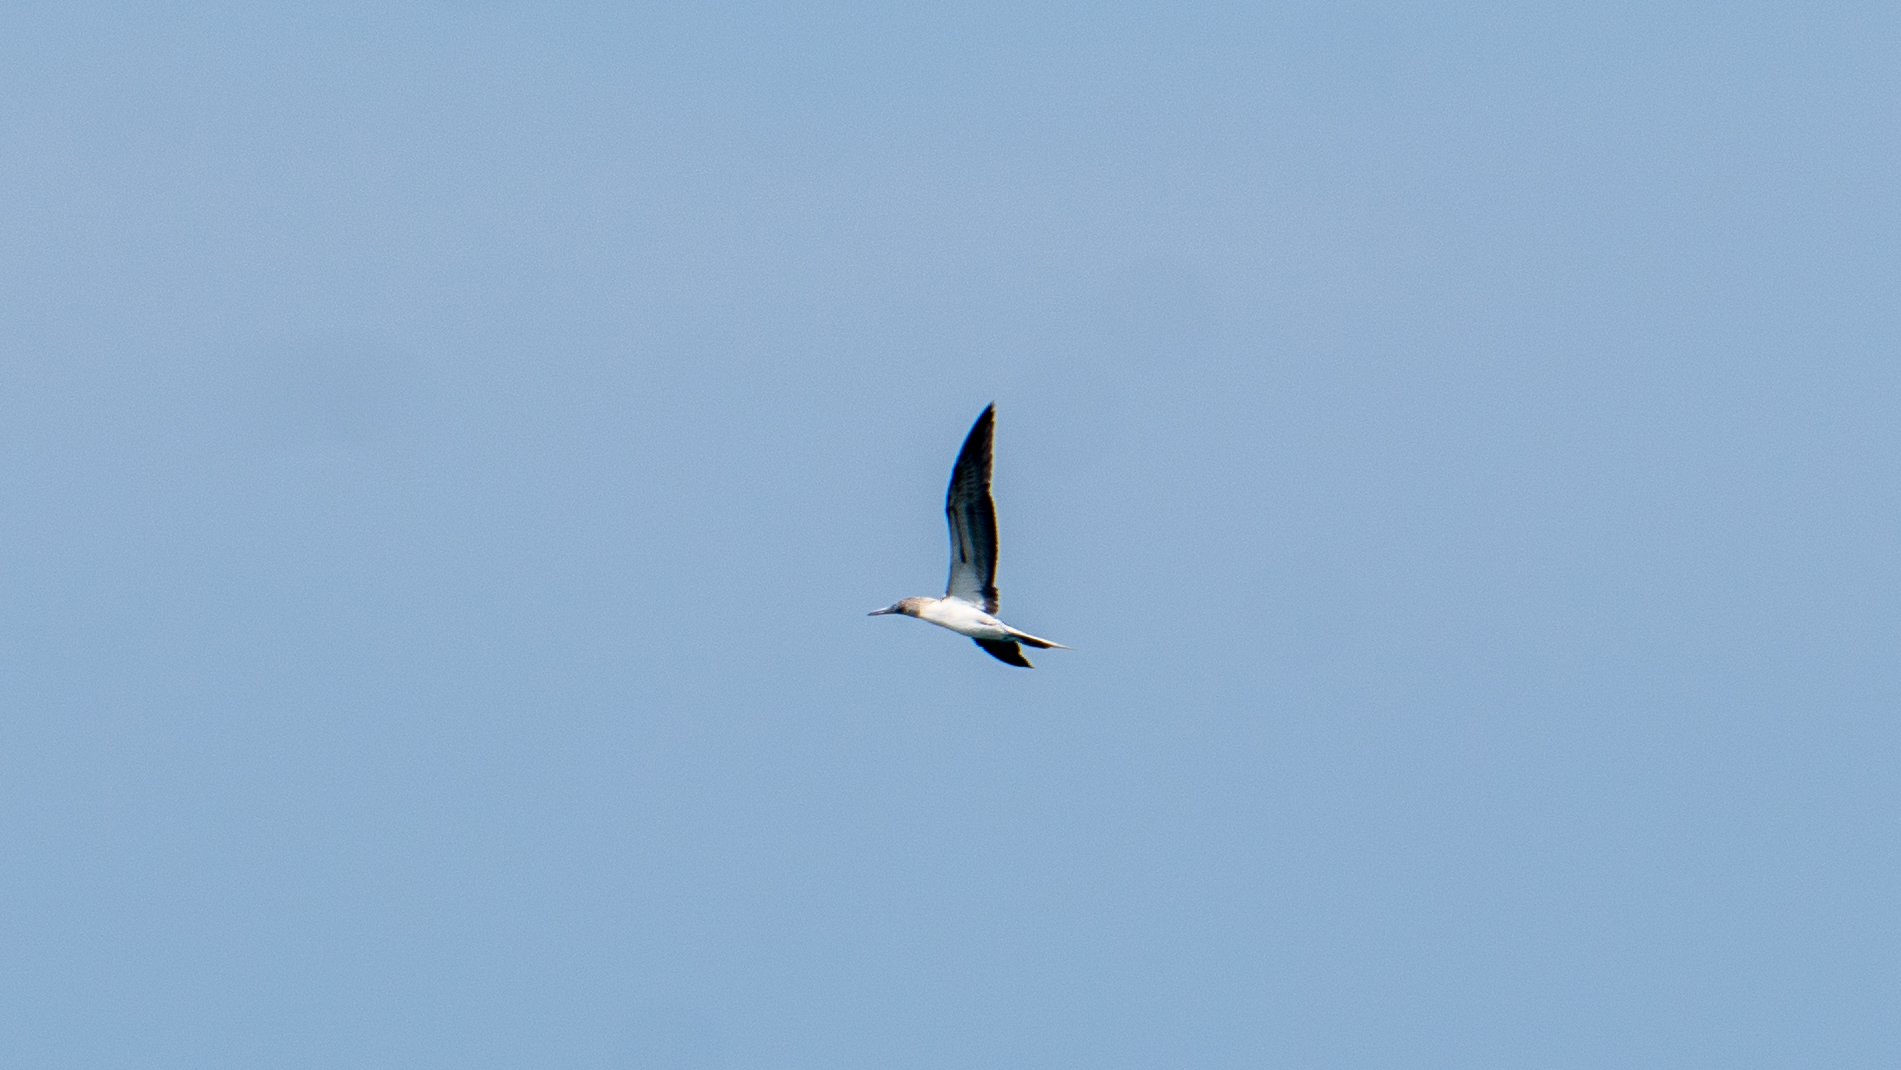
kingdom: Animalia
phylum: Chordata
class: Aves
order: Suliformes
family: Sulidae
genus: Sula
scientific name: Sula nebouxii
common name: Blue-footed booby
